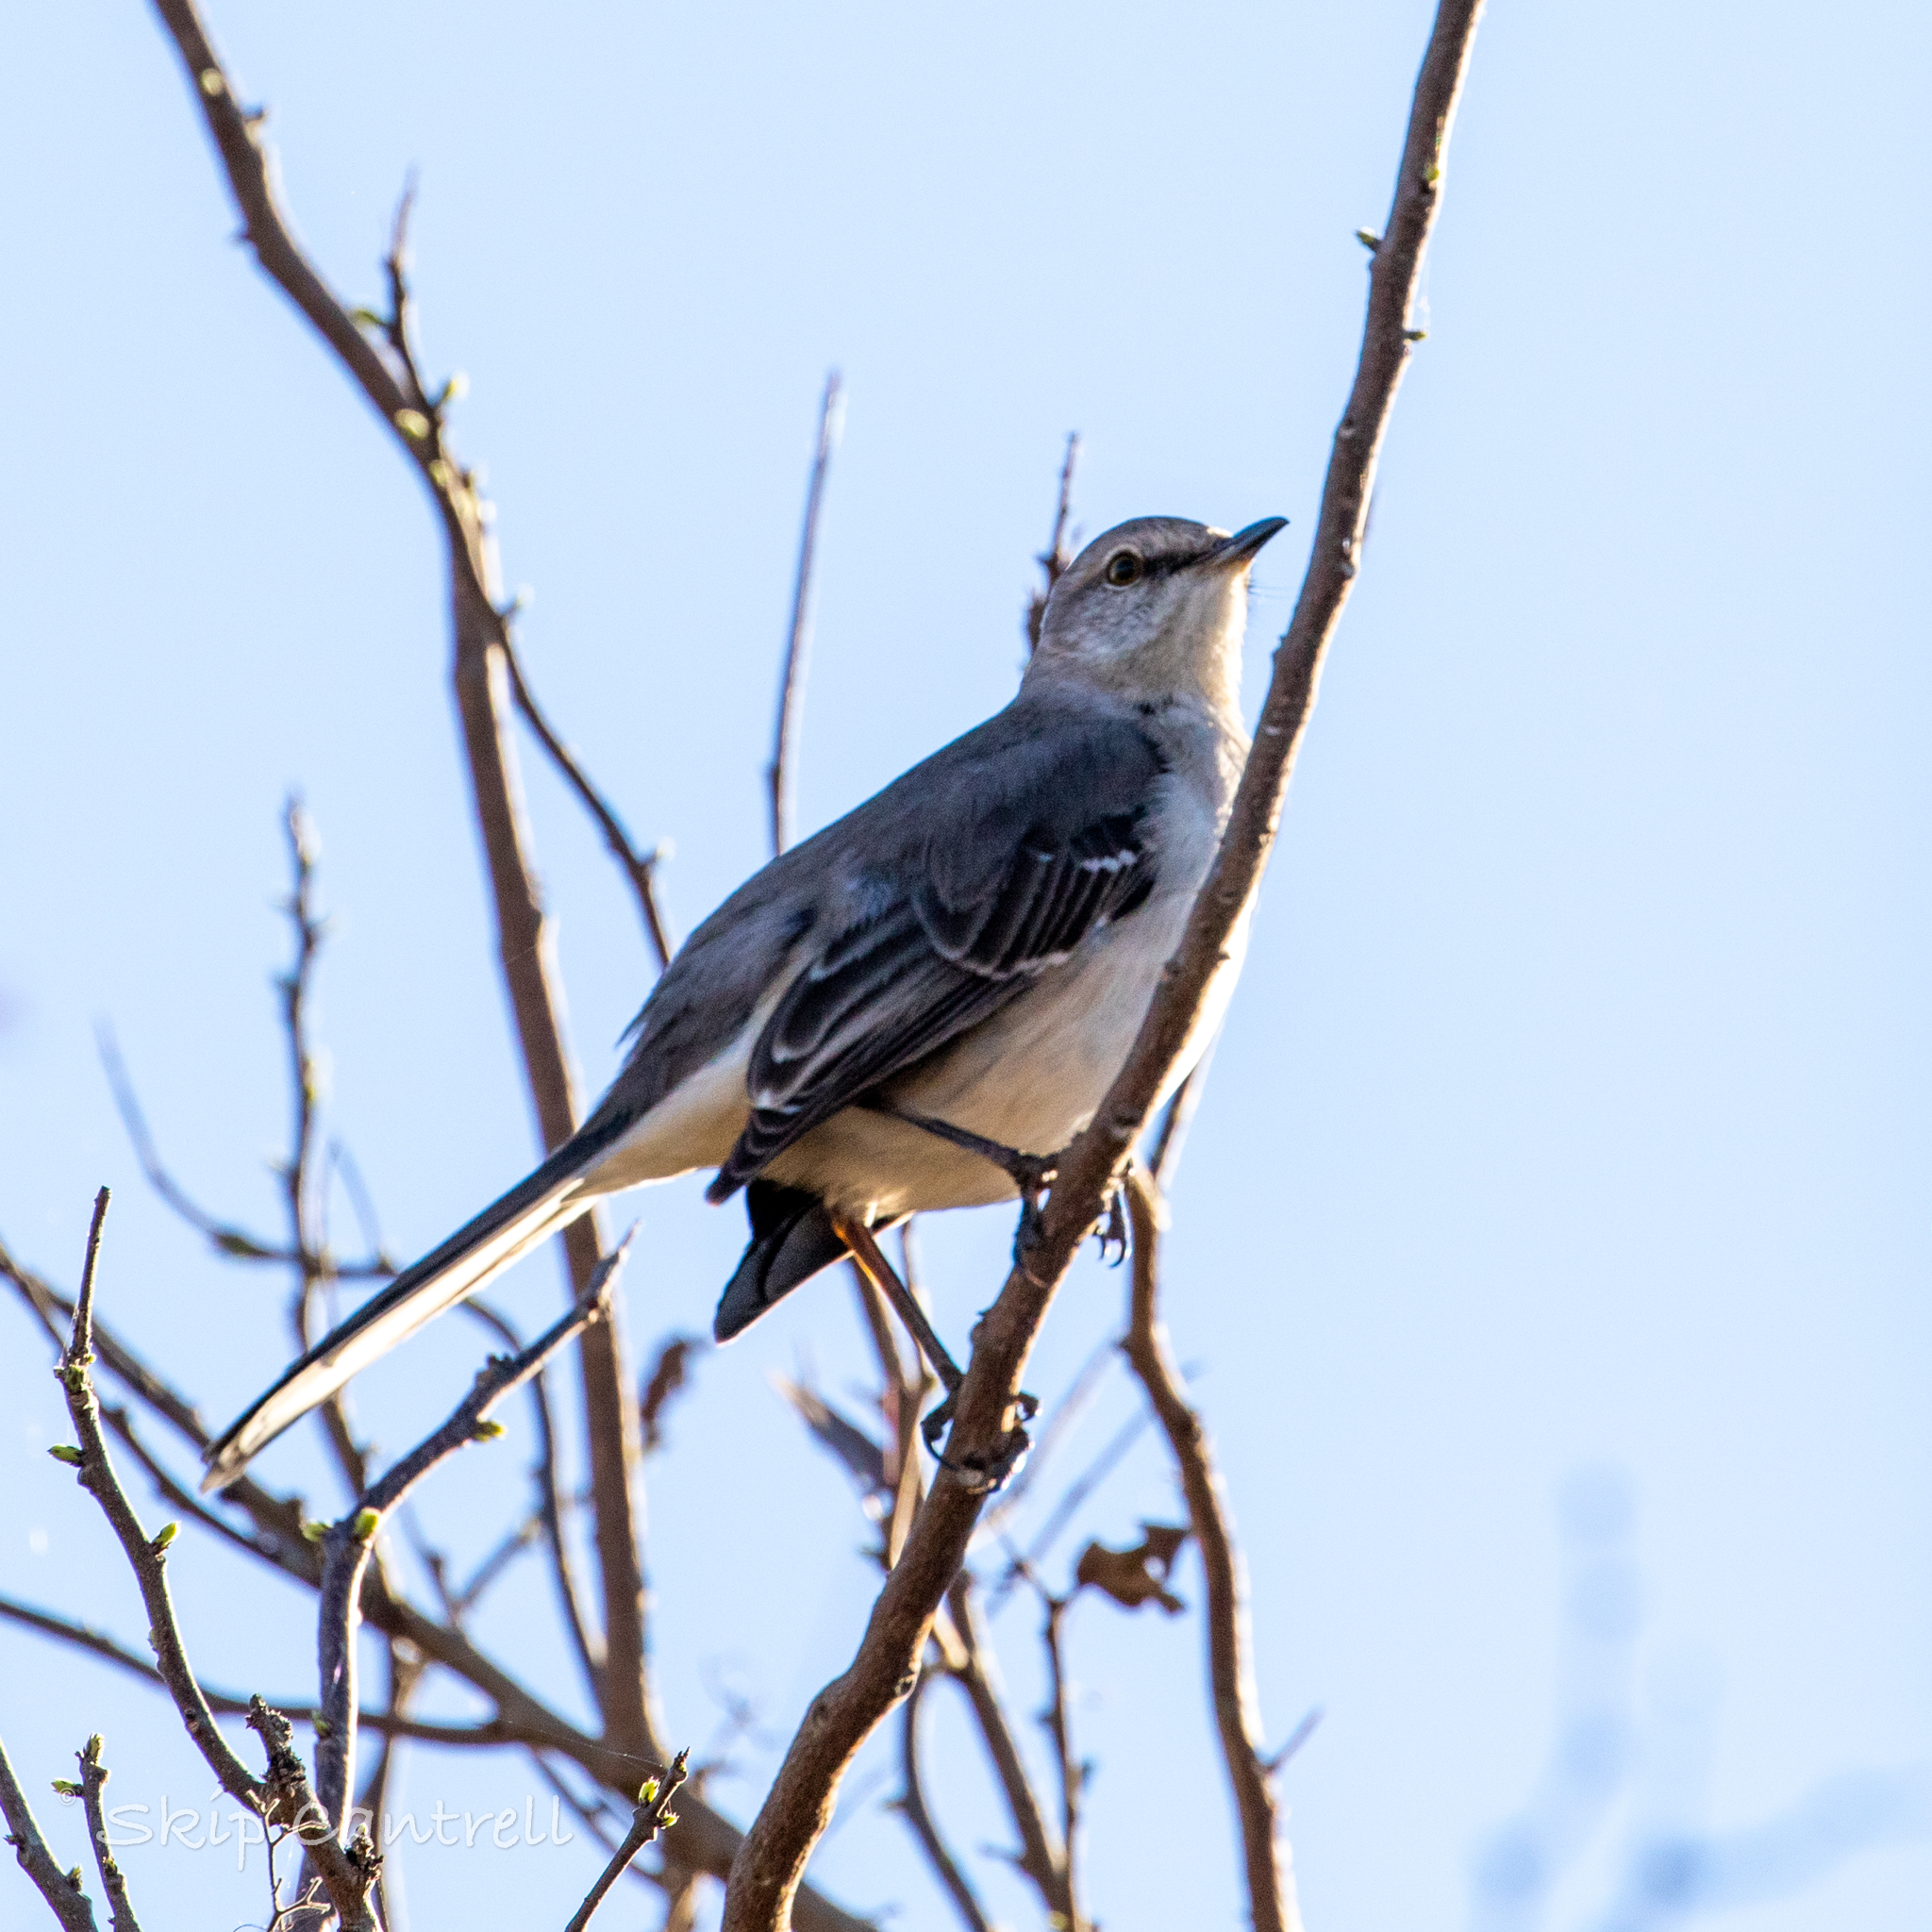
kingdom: Animalia
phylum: Chordata
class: Aves
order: Passeriformes
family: Mimidae
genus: Mimus
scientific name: Mimus polyglottos
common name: Northern mockingbird
